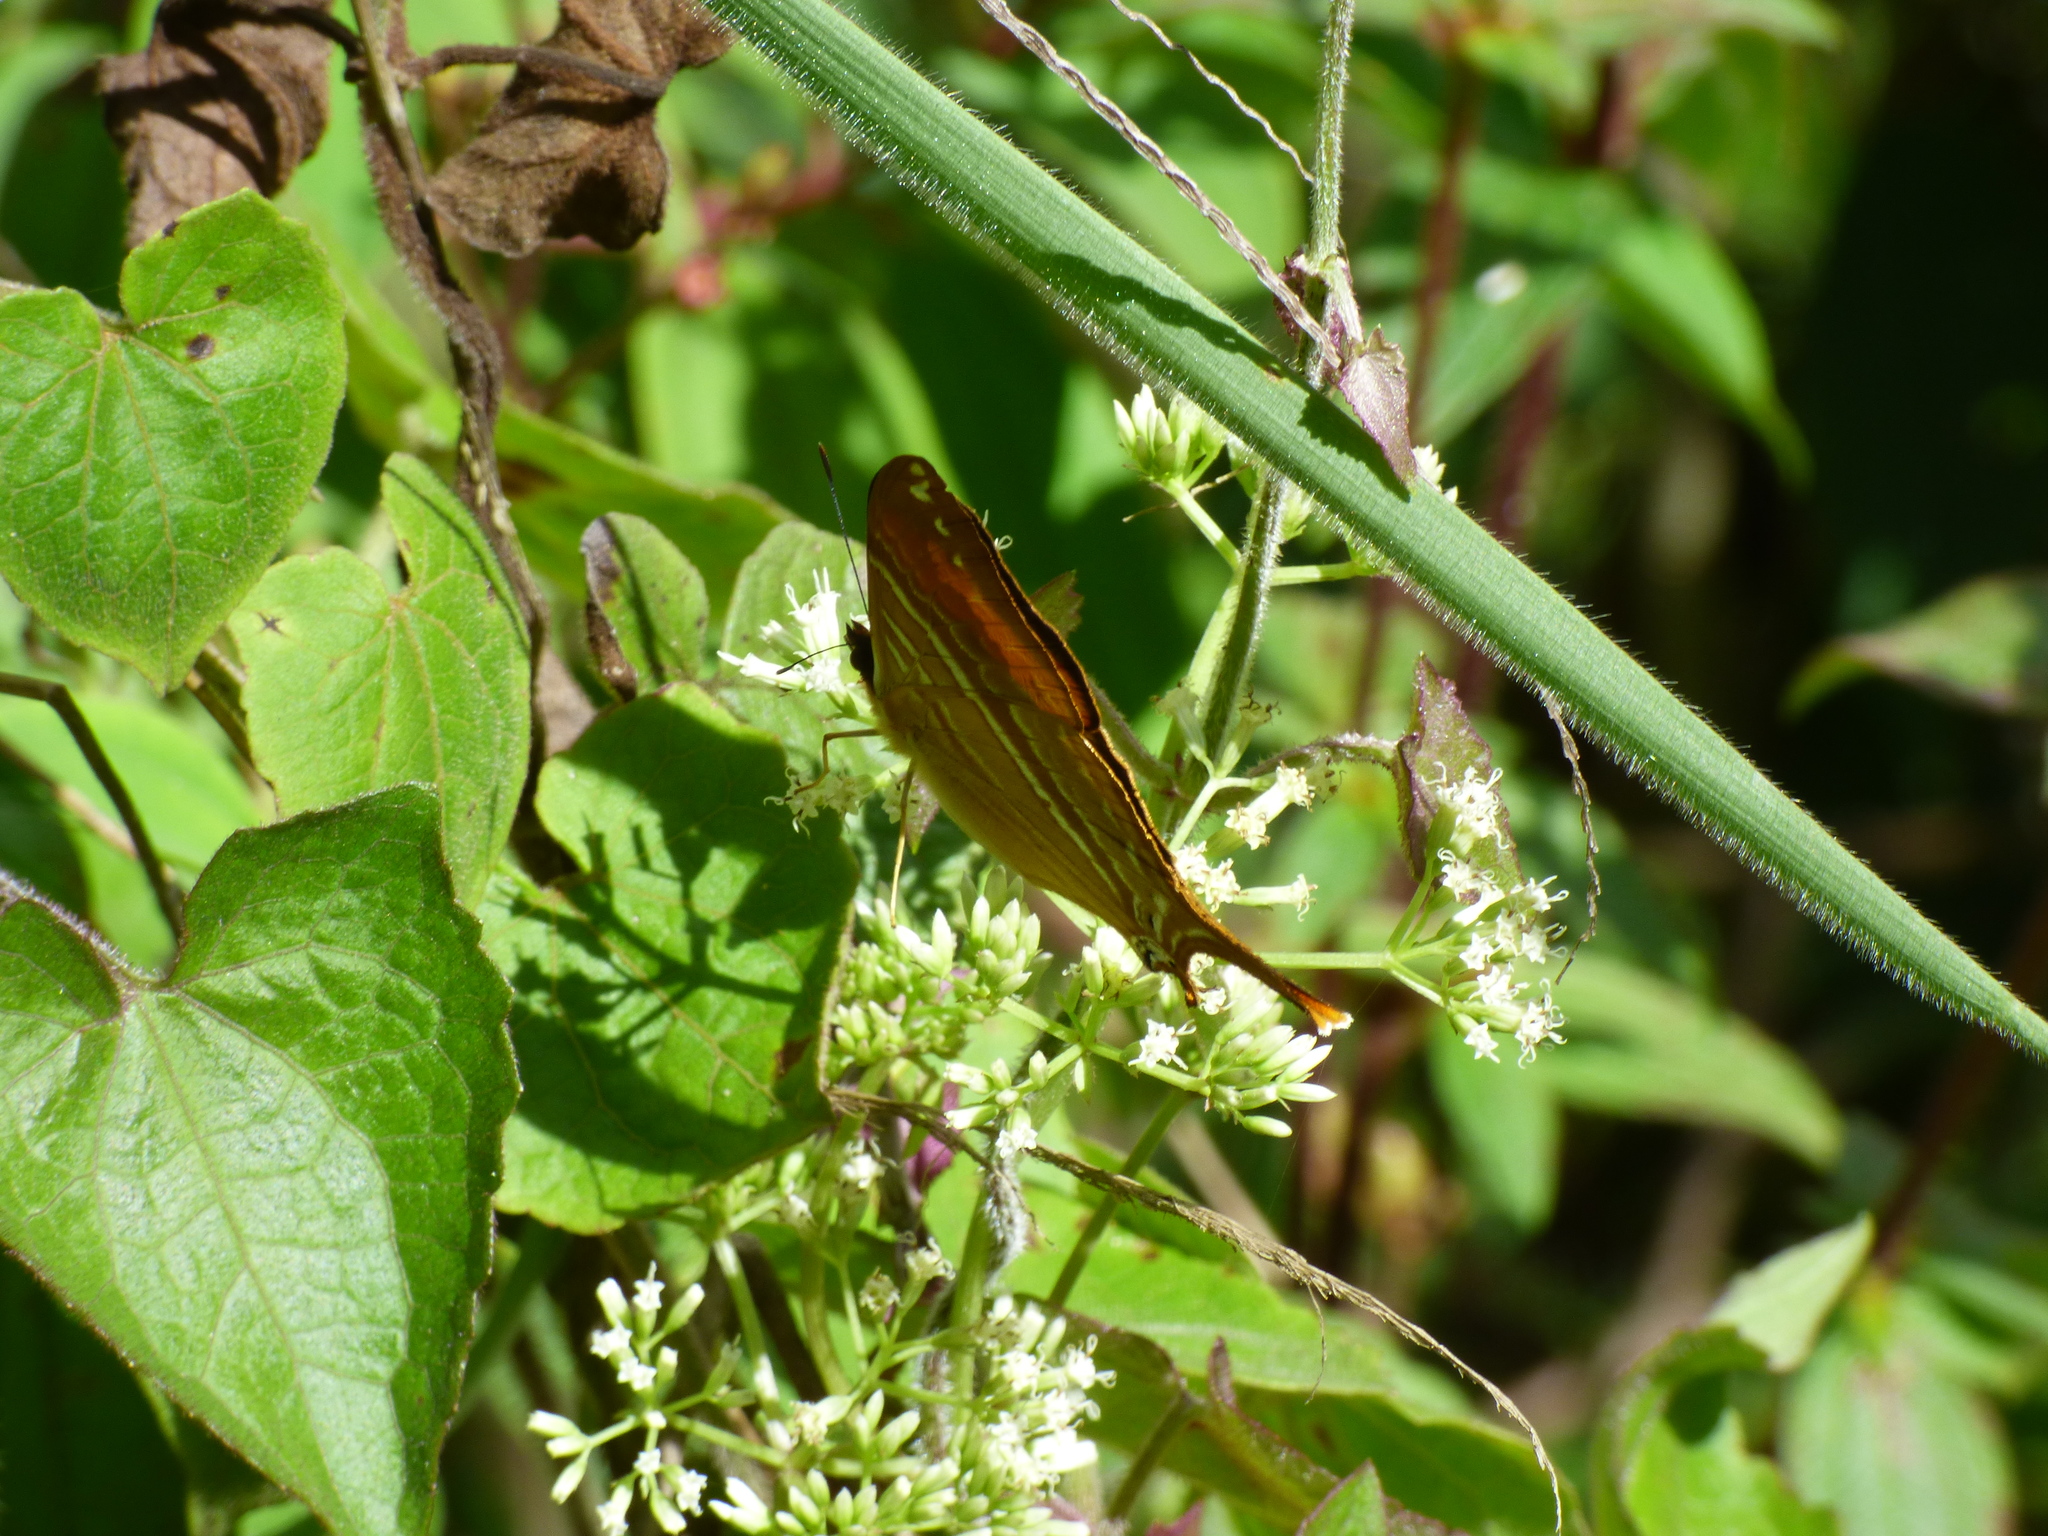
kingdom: Animalia
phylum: Arthropoda
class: Insecta
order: Lepidoptera
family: Nymphalidae
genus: Marpesia
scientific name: Marpesia corinna
